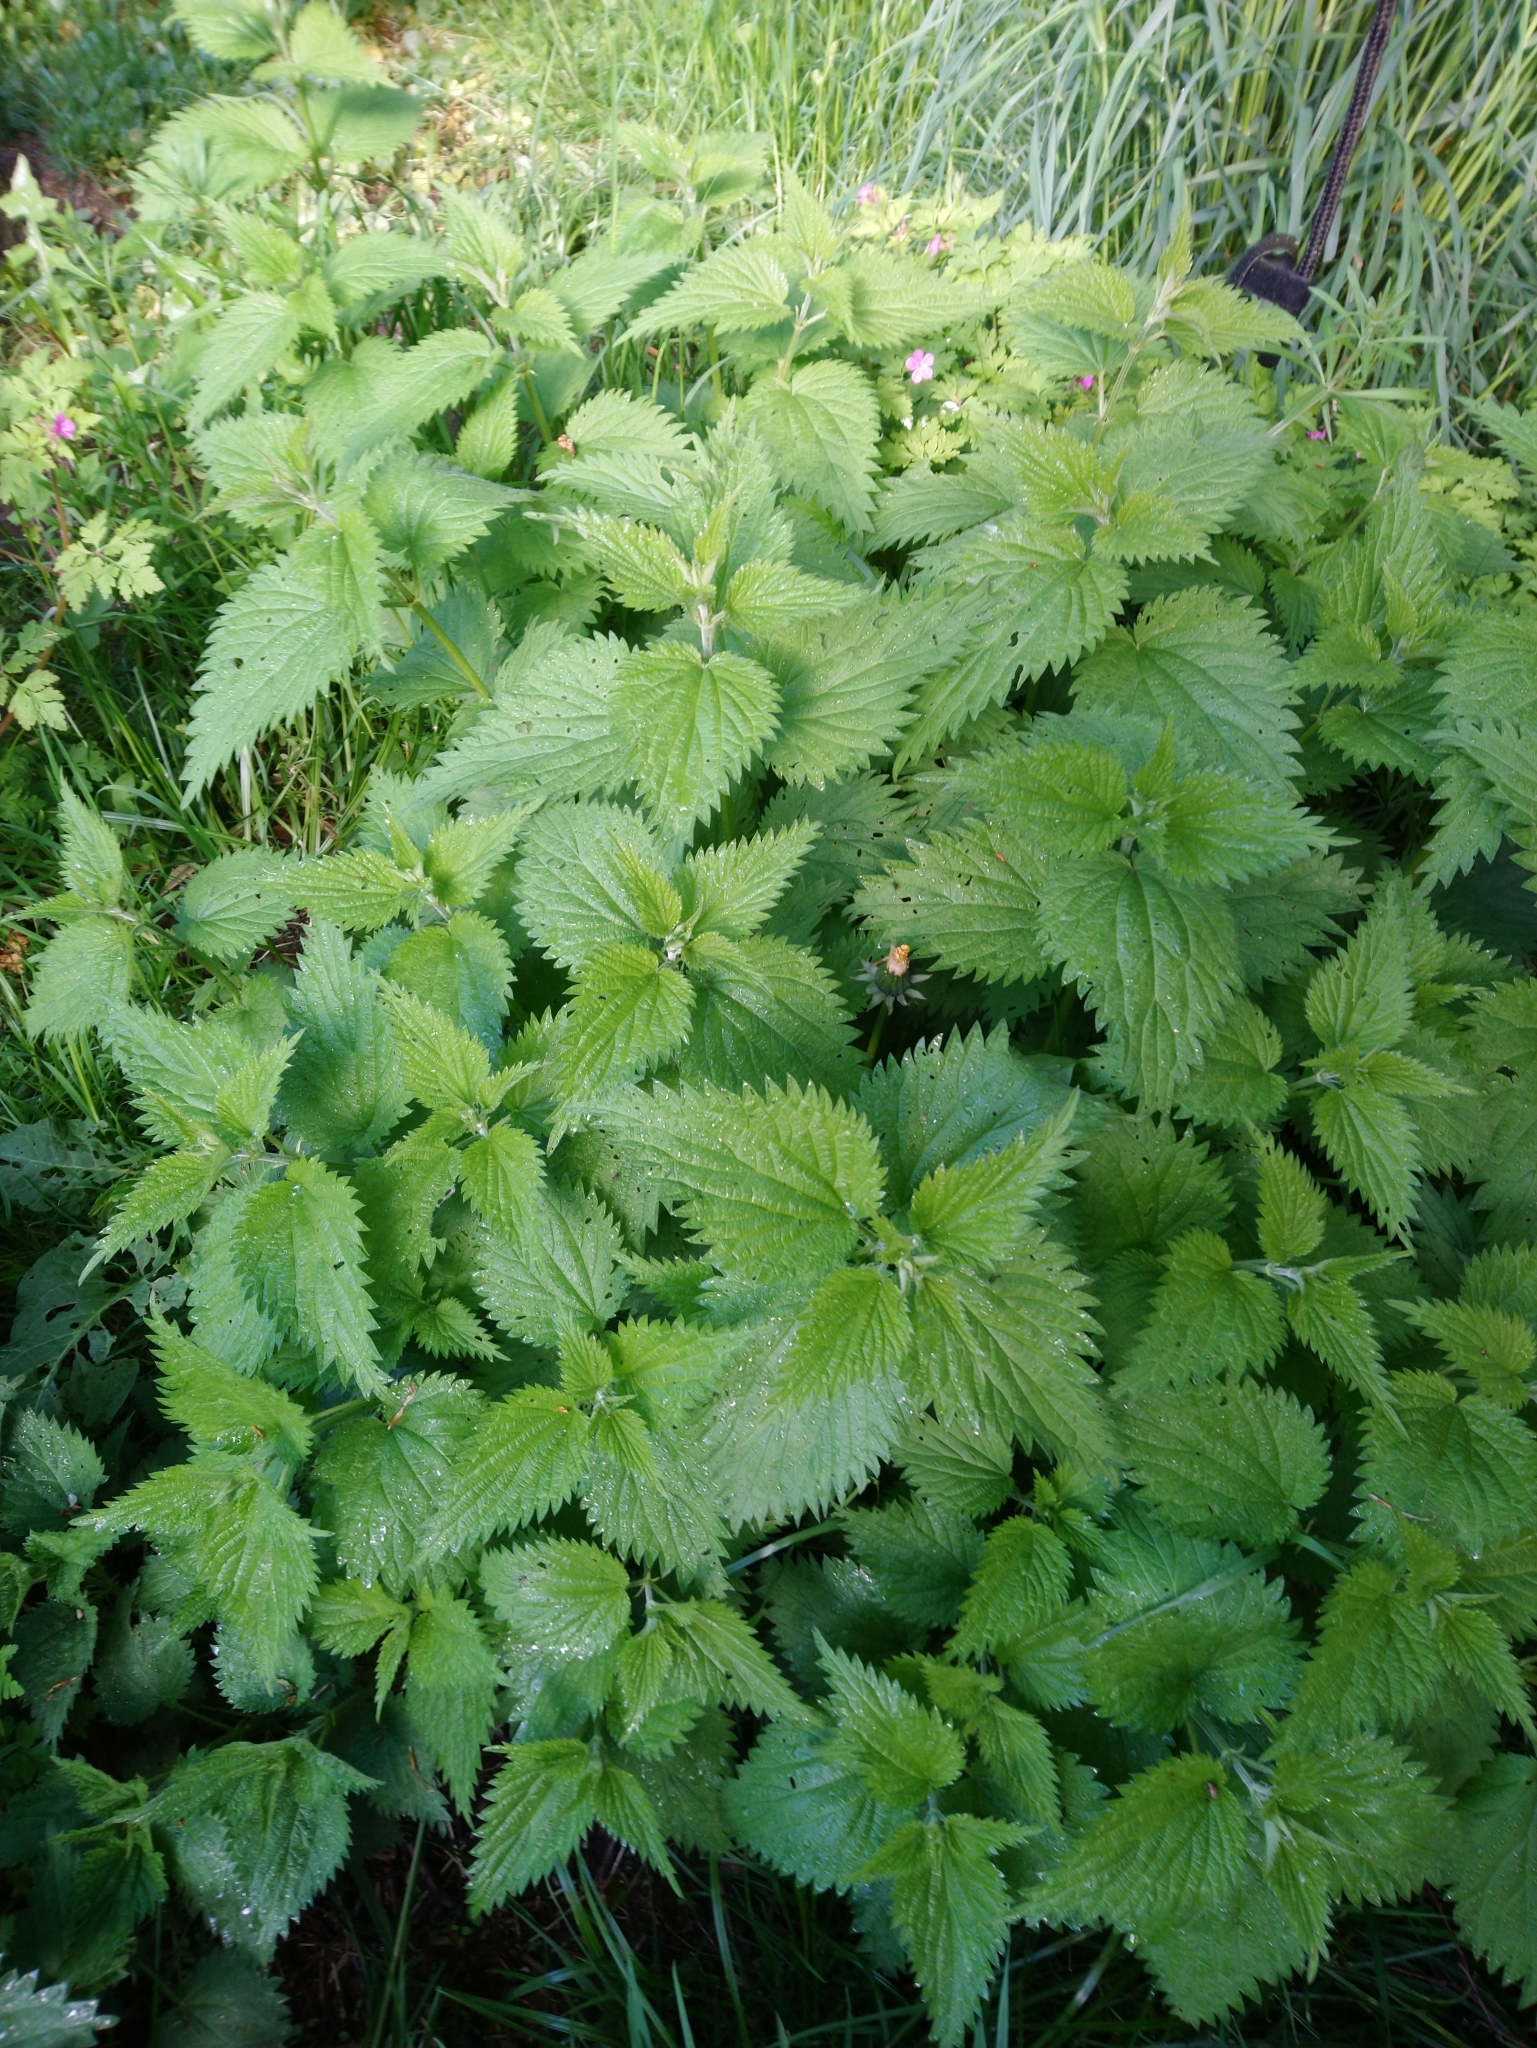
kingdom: Plantae
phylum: Tracheophyta
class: Magnoliopsida
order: Rosales
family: Urticaceae
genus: Urtica
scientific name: Urtica dioica
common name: Common nettle
